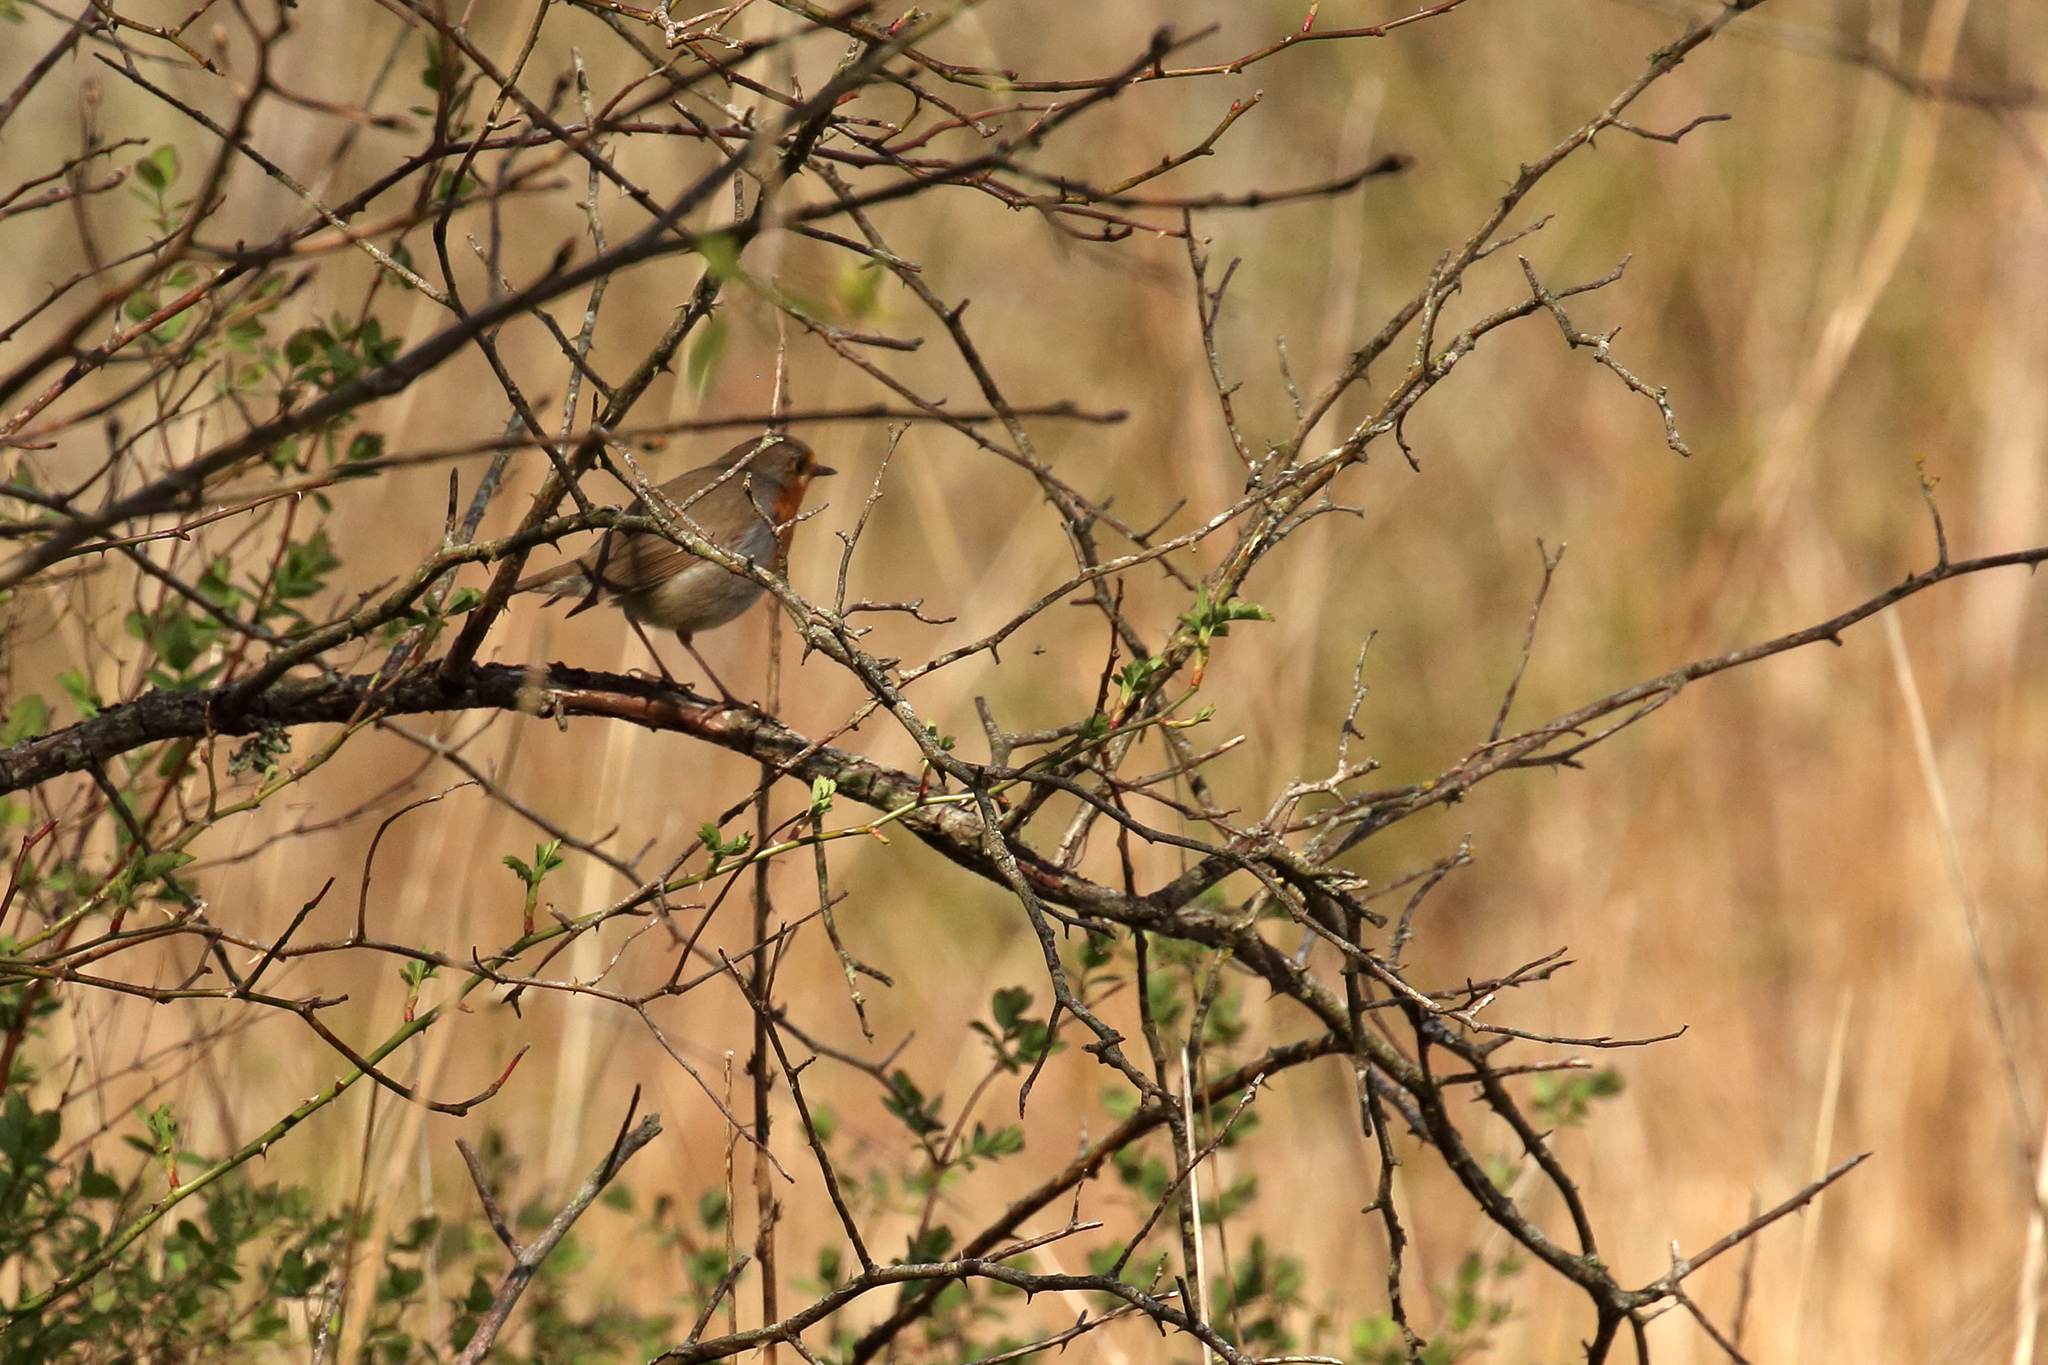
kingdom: Animalia
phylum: Chordata
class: Aves
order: Passeriformes
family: Muscicapidae
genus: Erithacus
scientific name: Erithacus rubecula
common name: European robin
